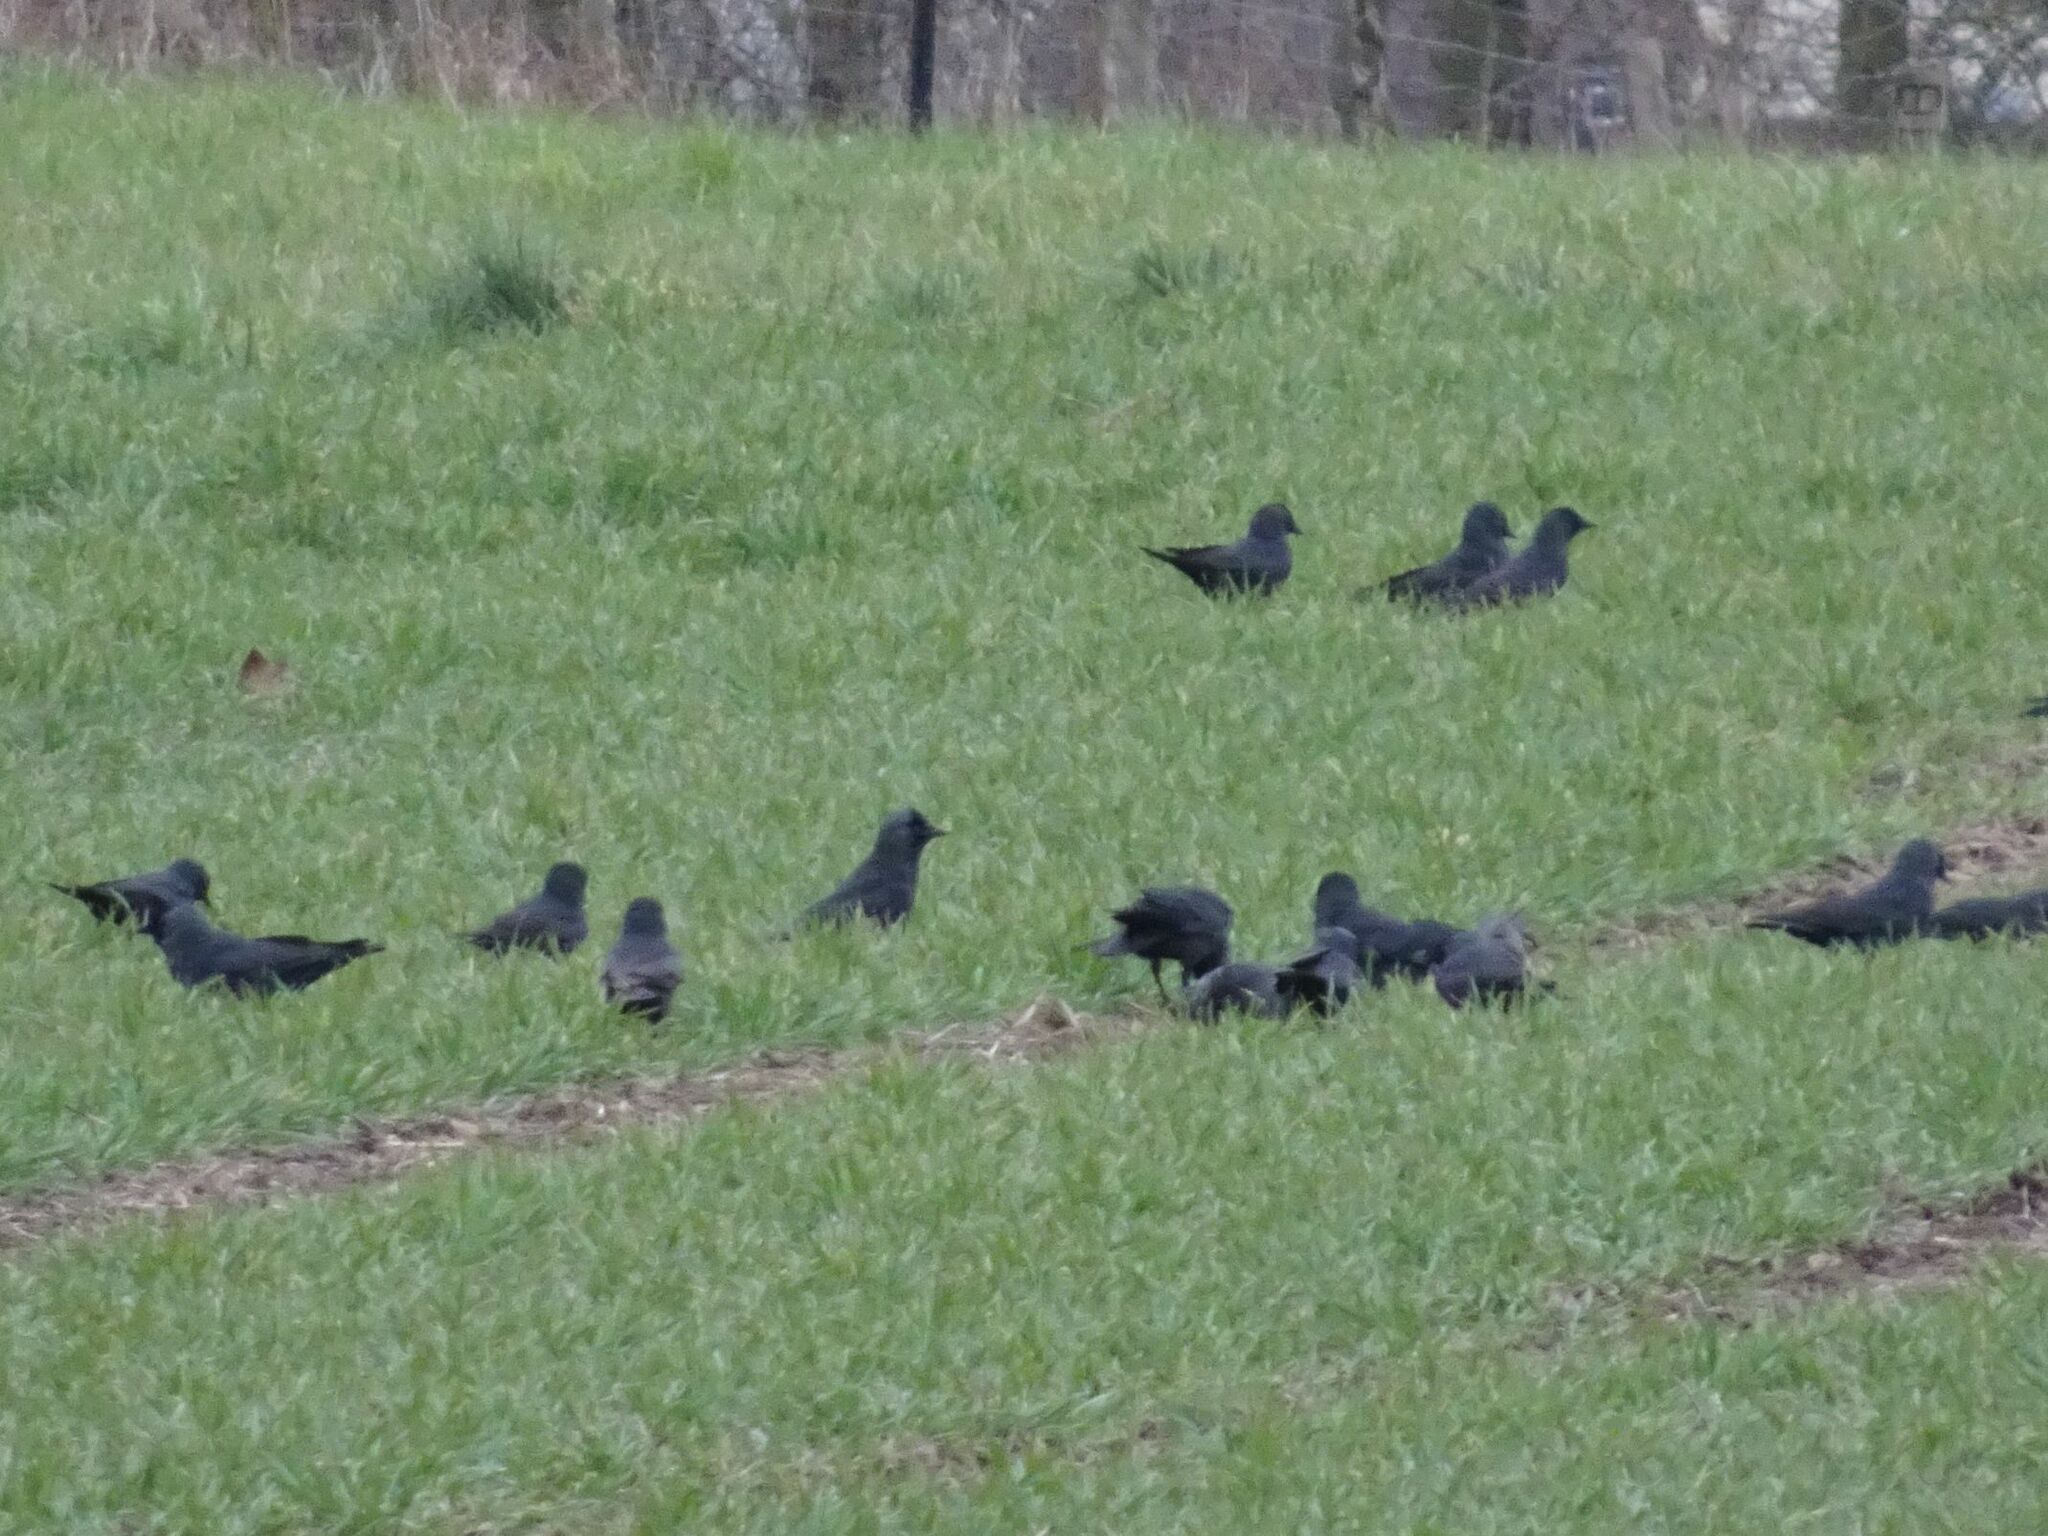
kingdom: Animalia
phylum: Chordata
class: Aves
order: Passeriformes
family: Corvidae
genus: Coloeus
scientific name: Coloeus monedula
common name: Western jackdaw
